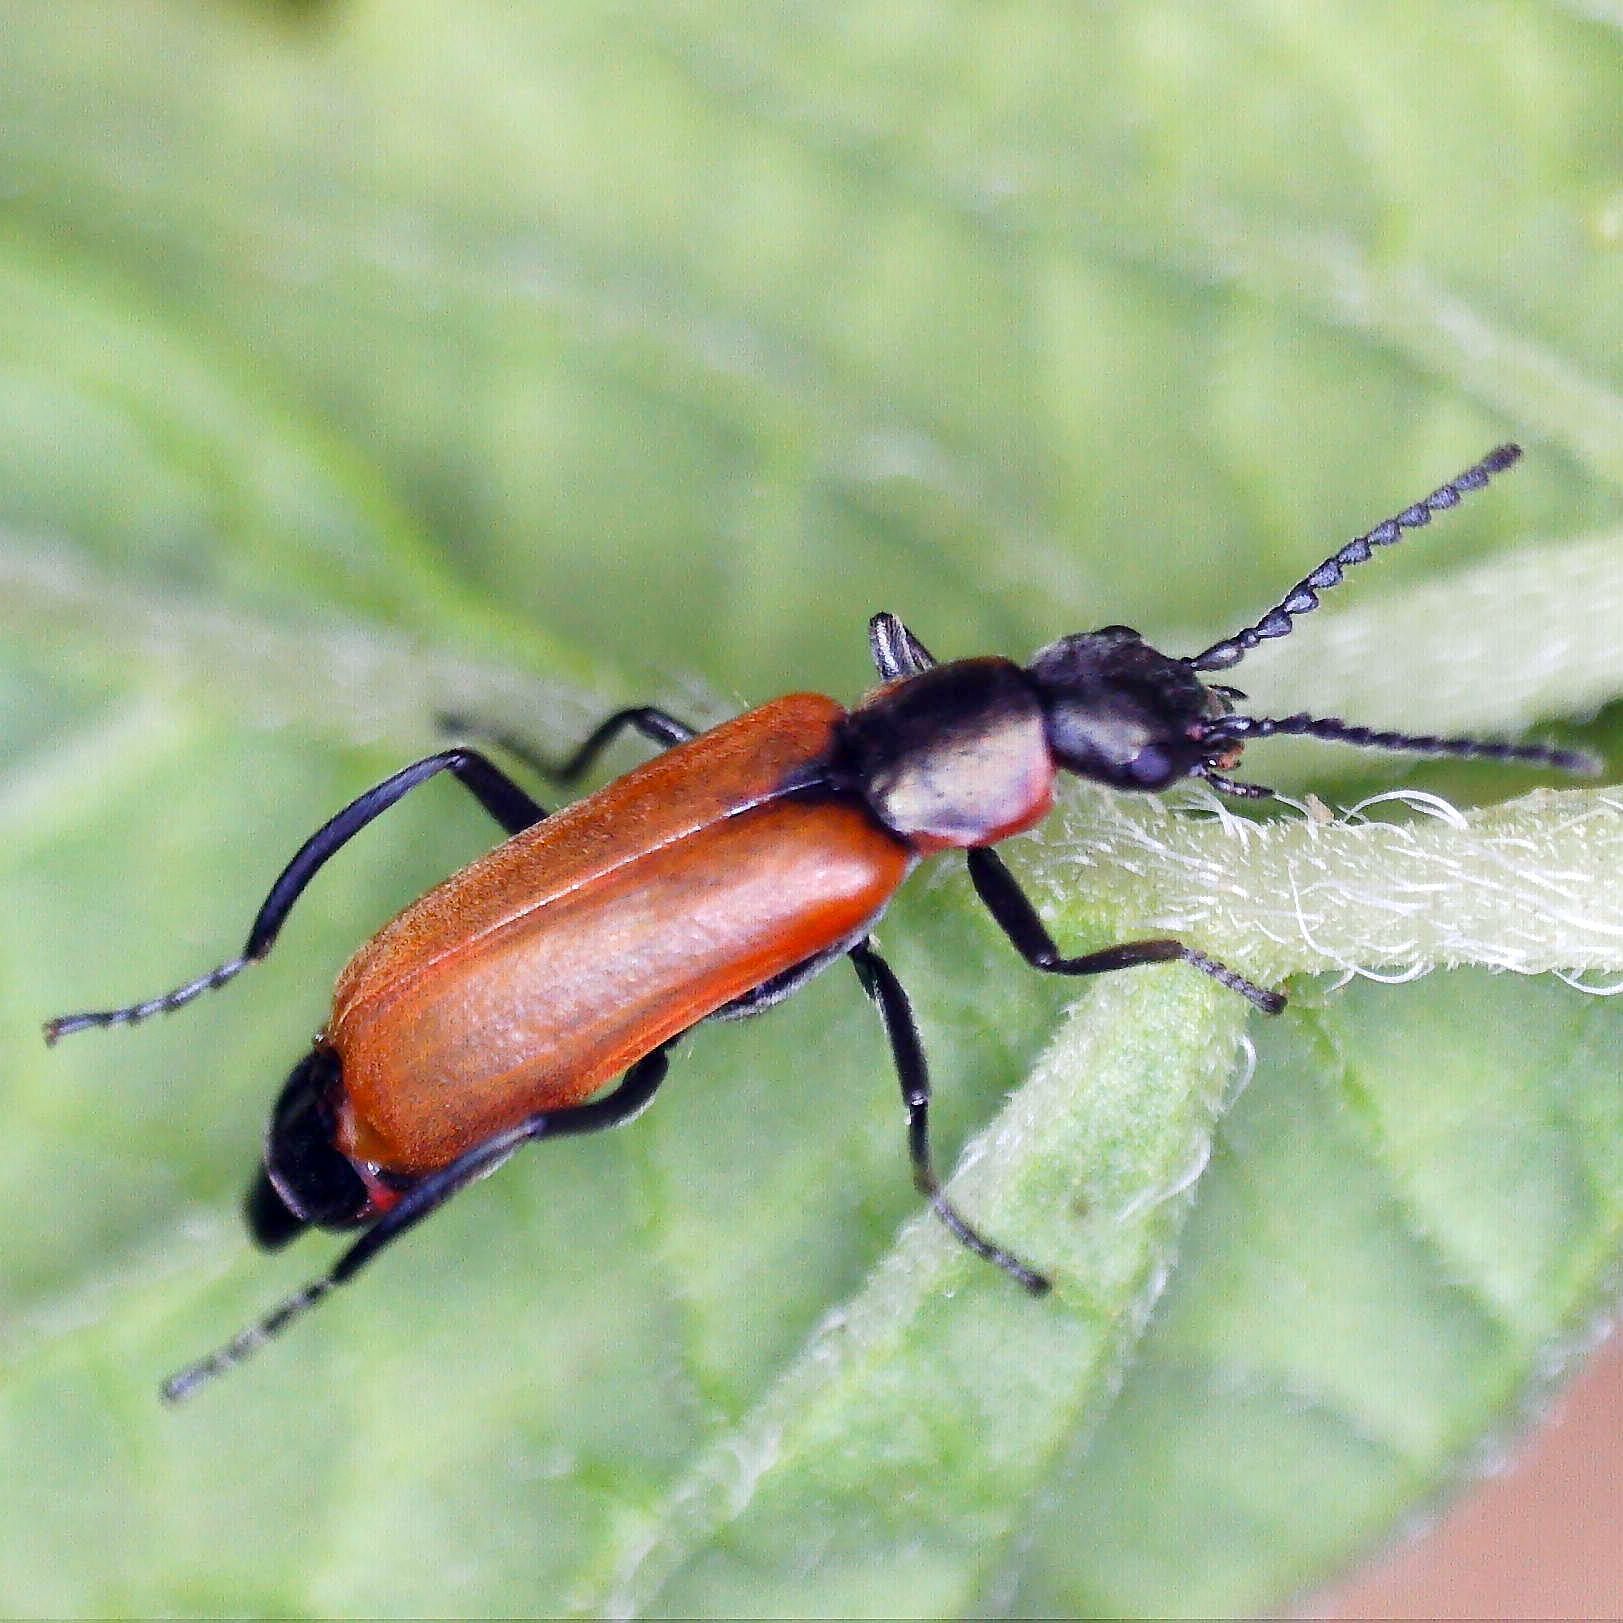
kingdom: Animalia
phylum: Arthropoda
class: Insecta
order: Coleoptera
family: Melyridae
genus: Anthocomus
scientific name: Anthocomus rufus
